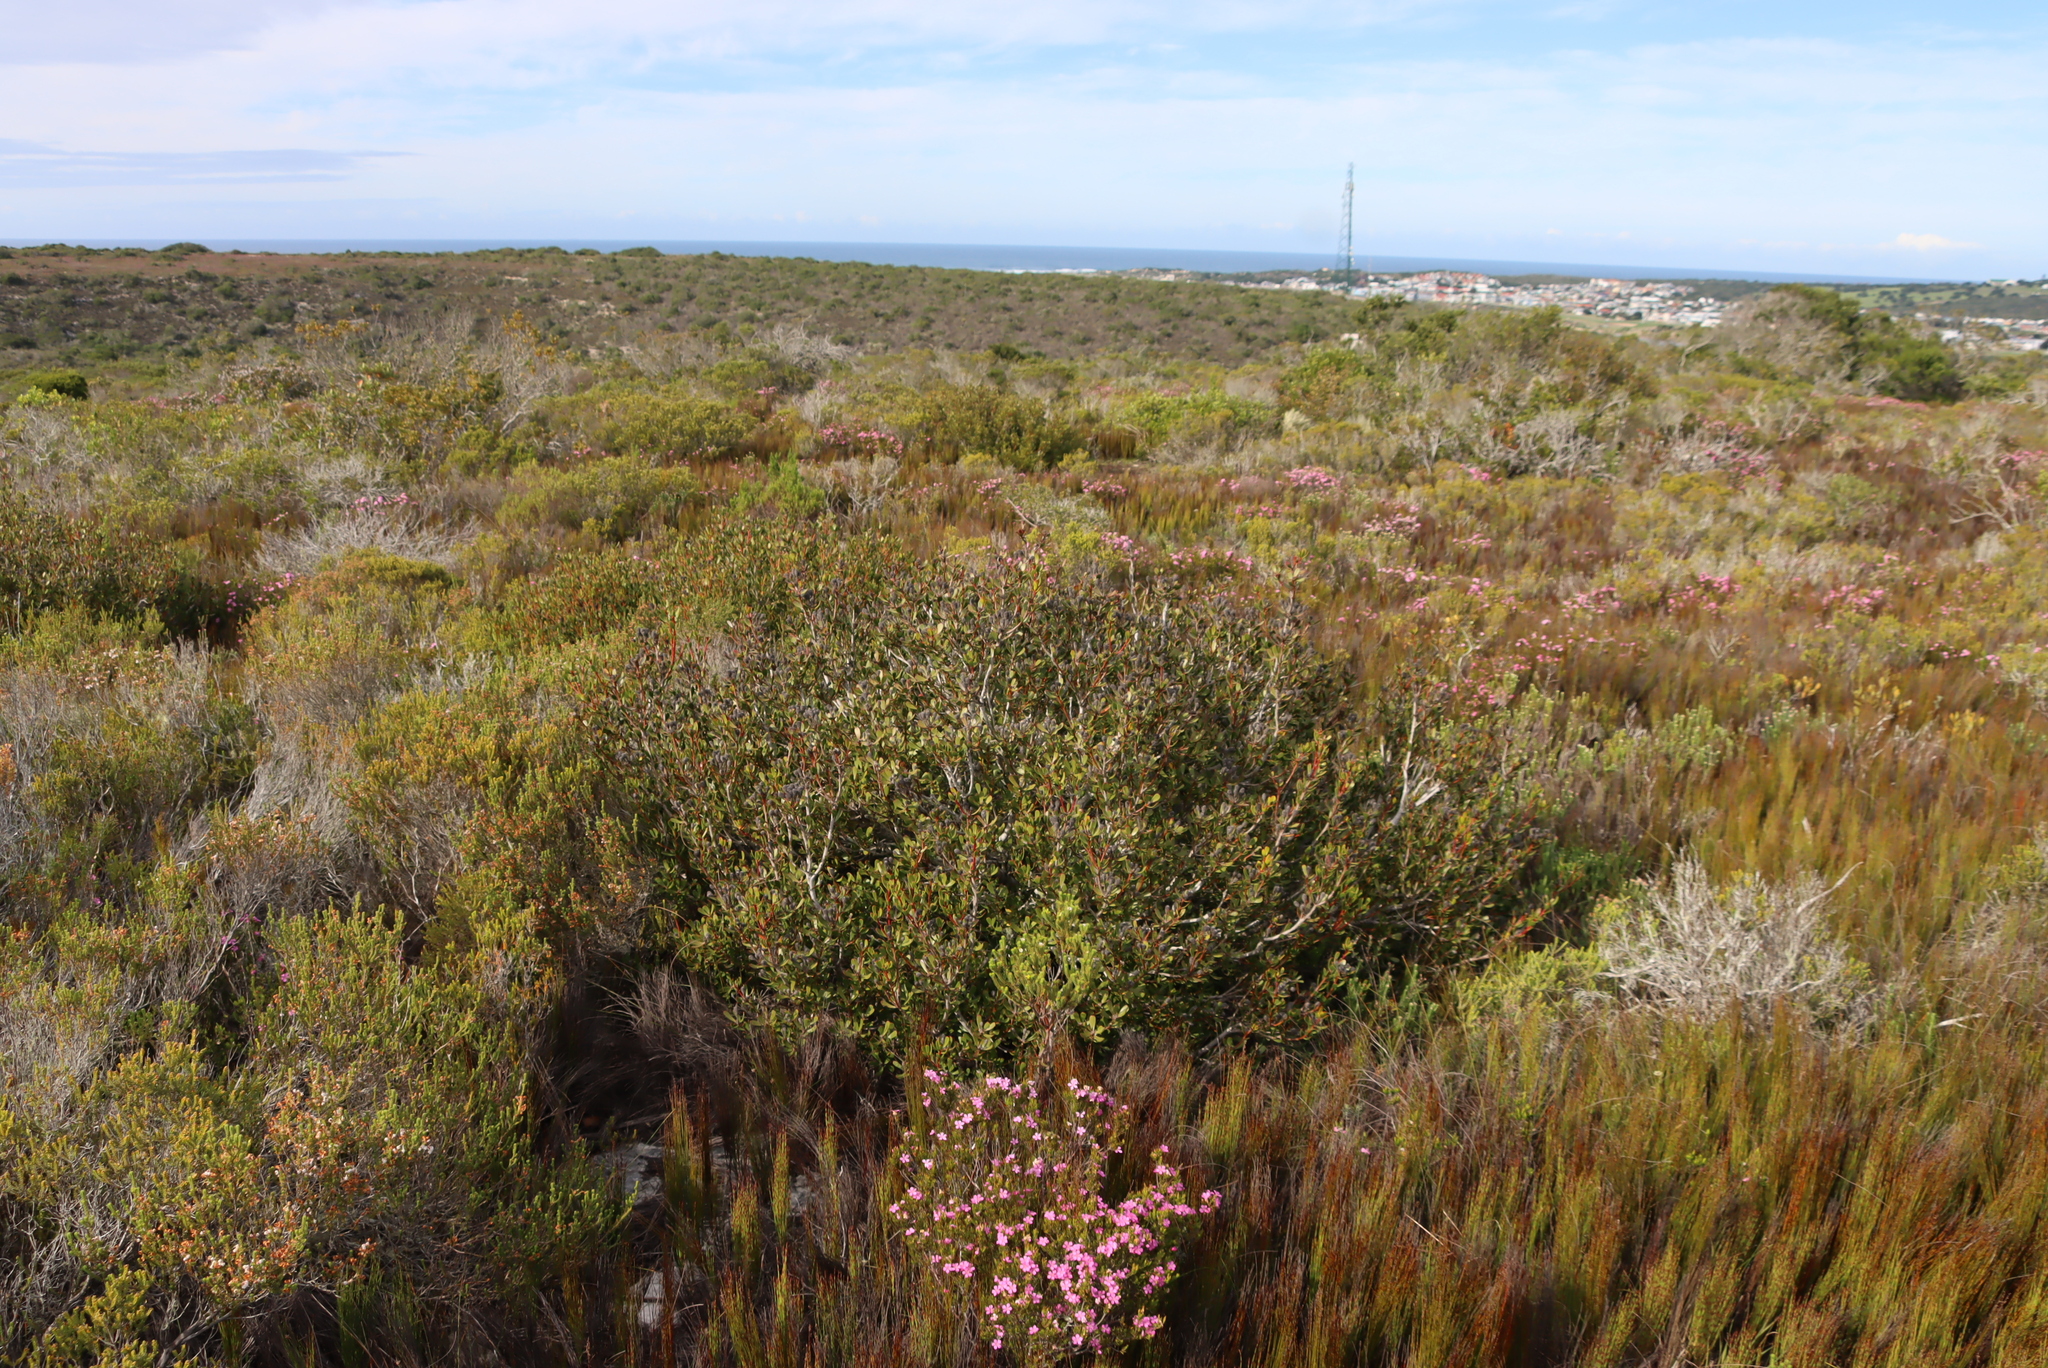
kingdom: Plantae
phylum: Tracheophyta
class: Magnoliopsida
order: Proteales
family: Proteaceae
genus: Leucadendron
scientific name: Leucadendron muirii
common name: Silver-ball conebush
